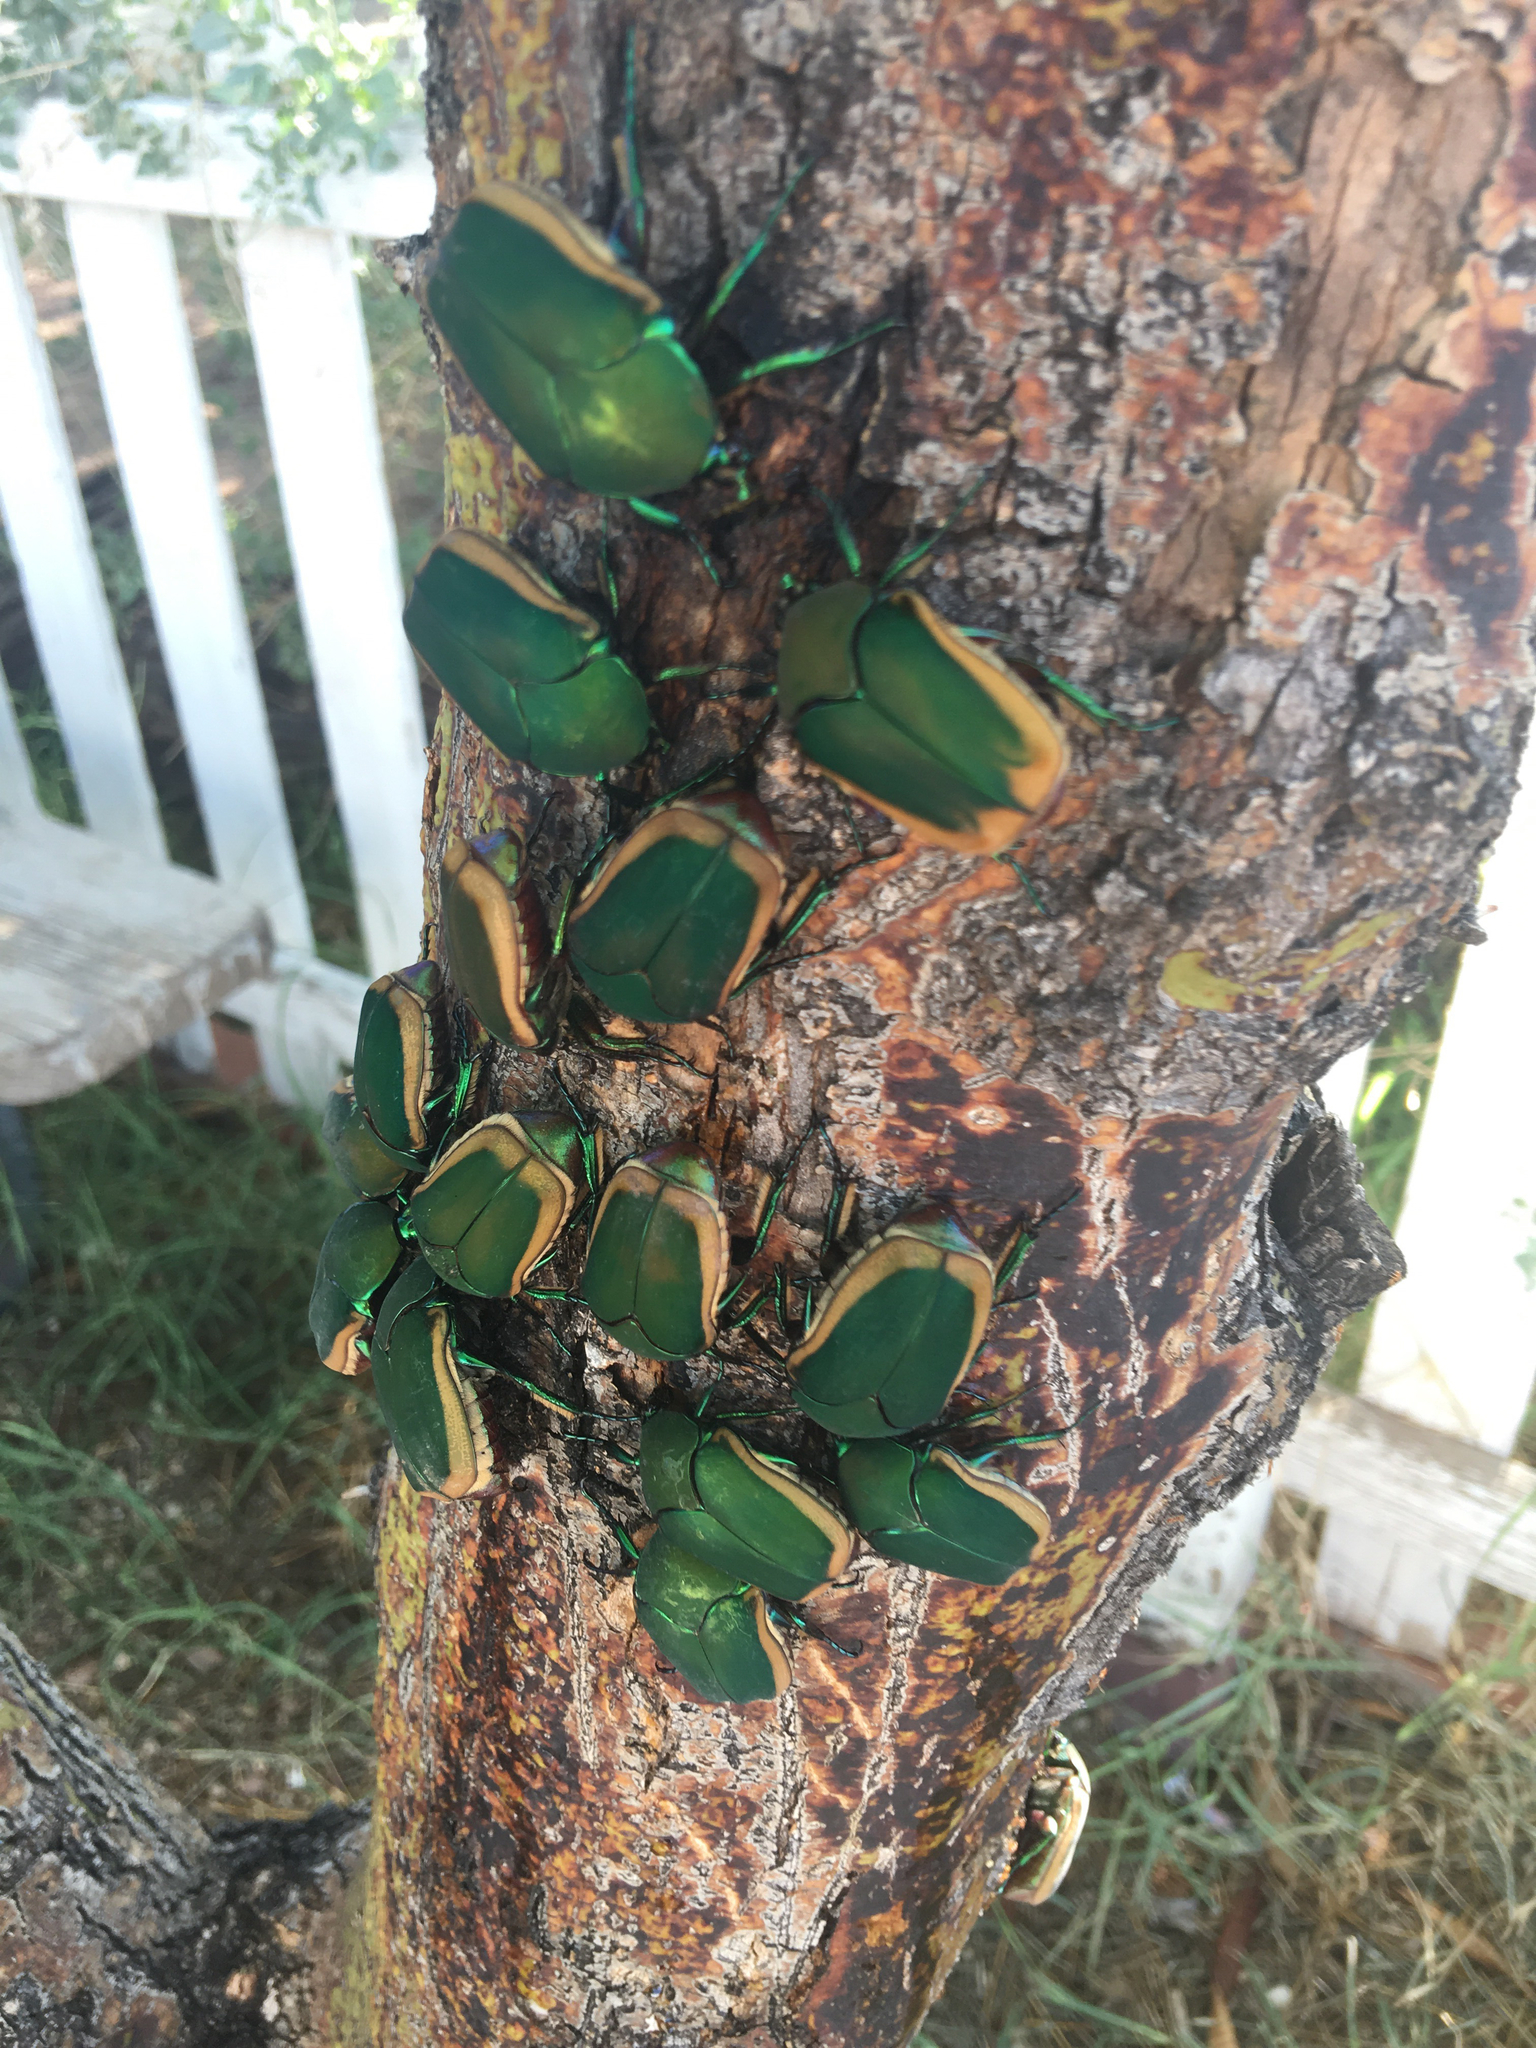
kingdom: Animalia
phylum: Arthropoda
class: Insecta
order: Coleoptera
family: Scarabaeidae
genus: Cotinis
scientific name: Cotinis mutabilis
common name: Figeater beetle
